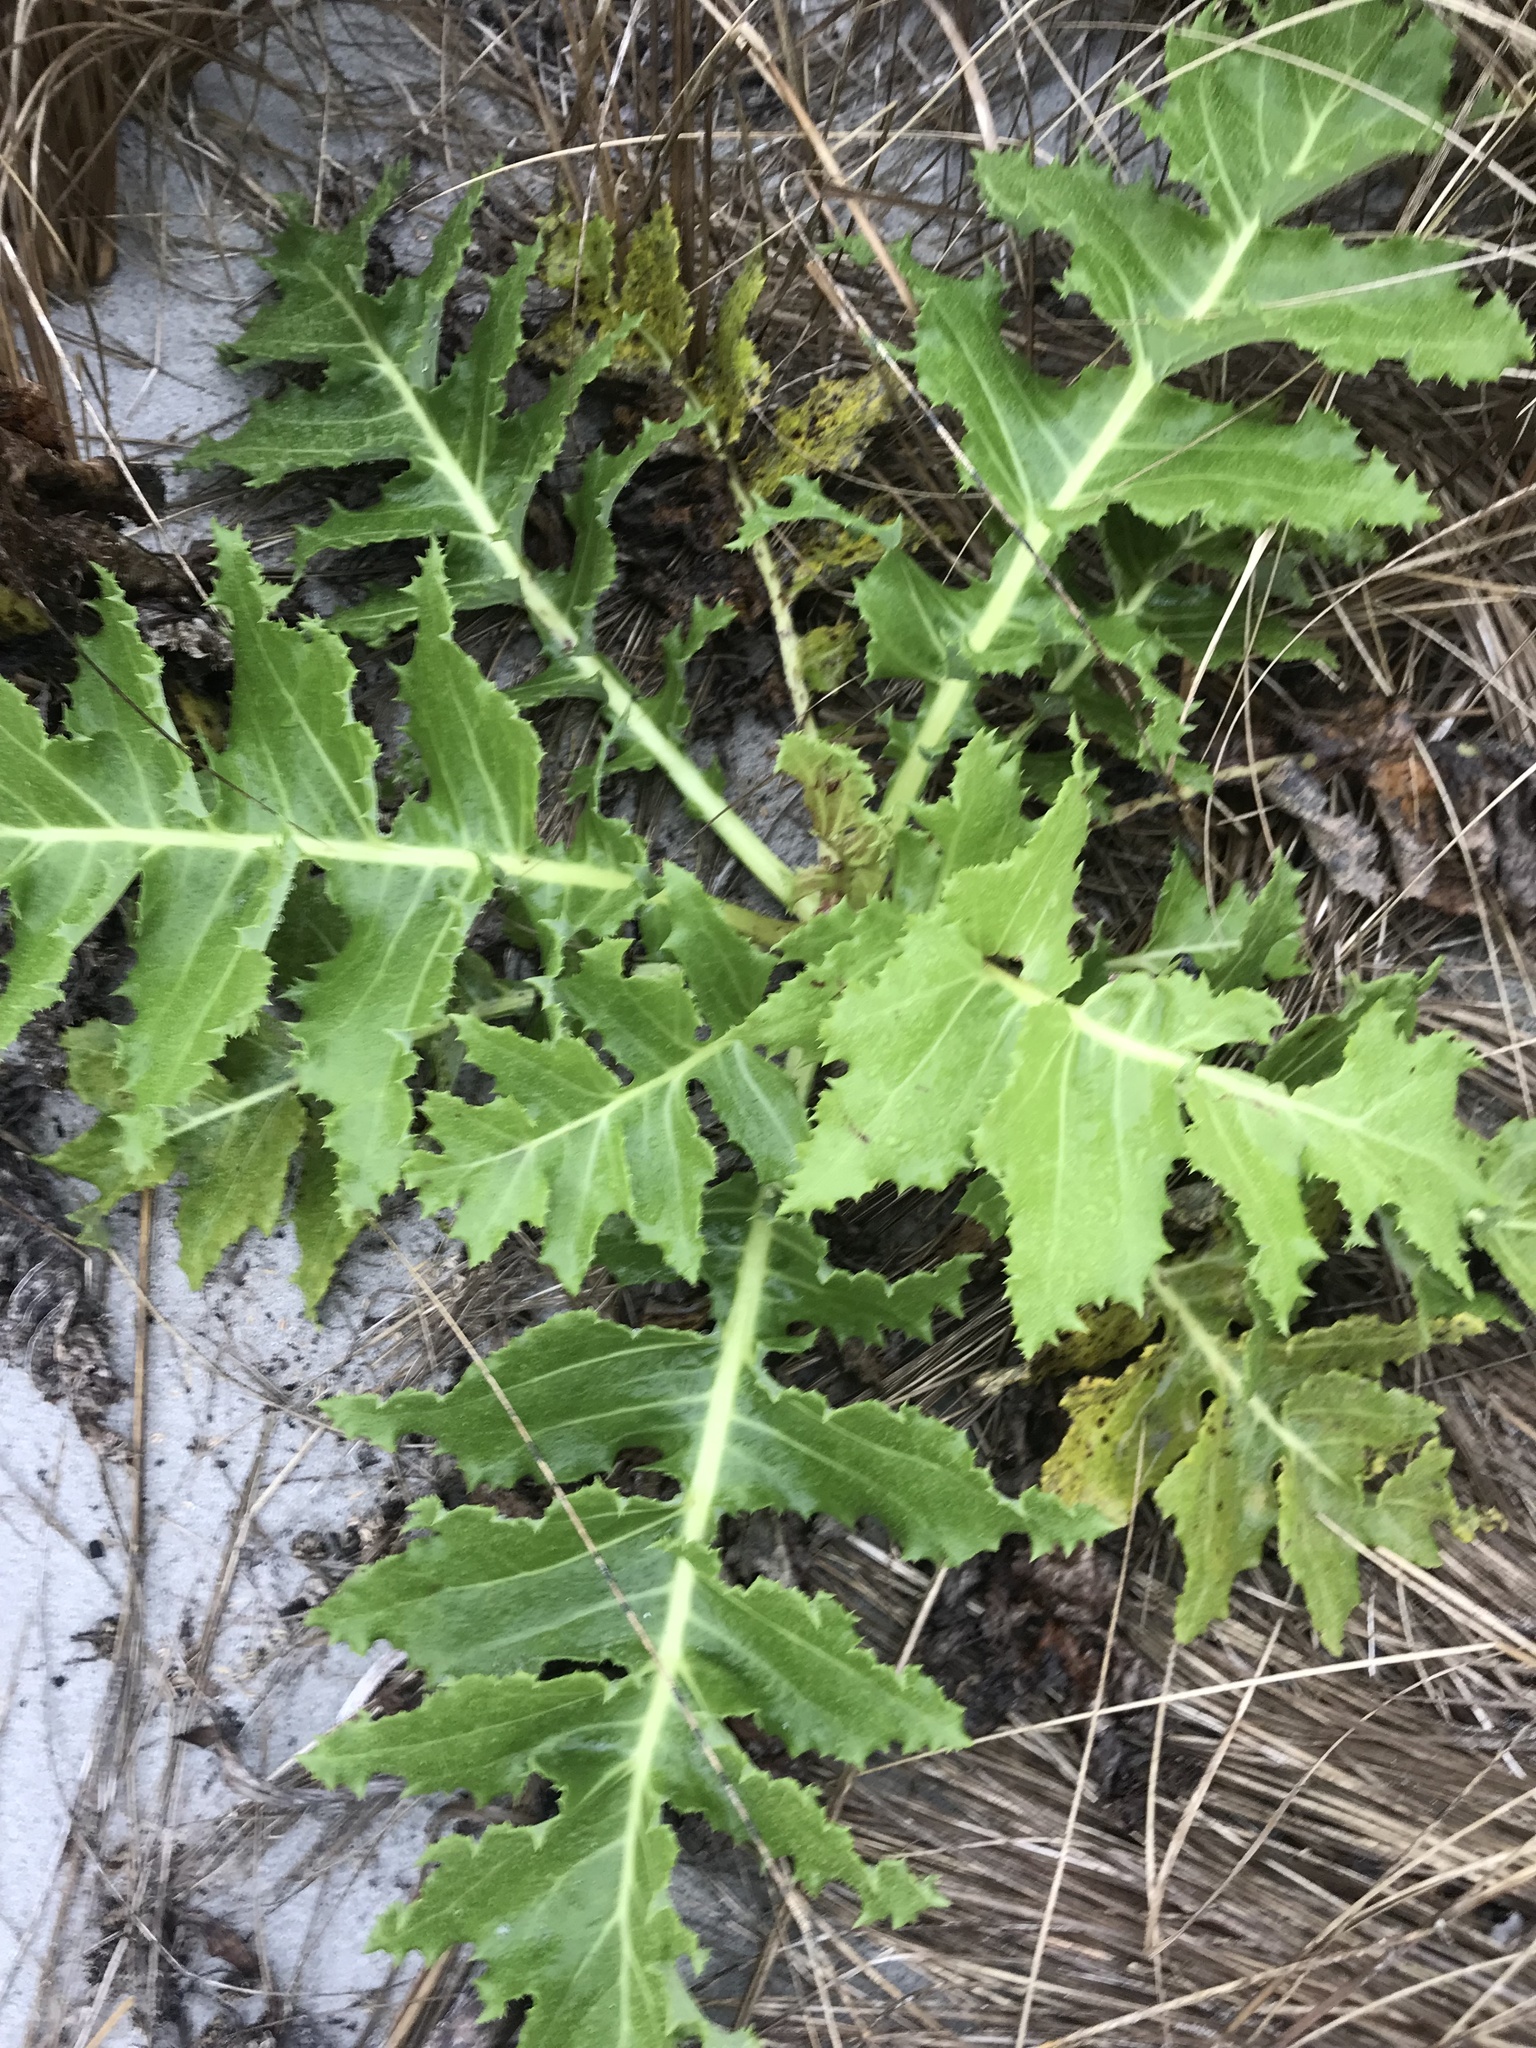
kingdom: Plantae
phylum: Tracheophyta
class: Magnoliopsida
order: Asterales
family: Asteraceae
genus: Sonchus
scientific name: Sonchus grandifolius
